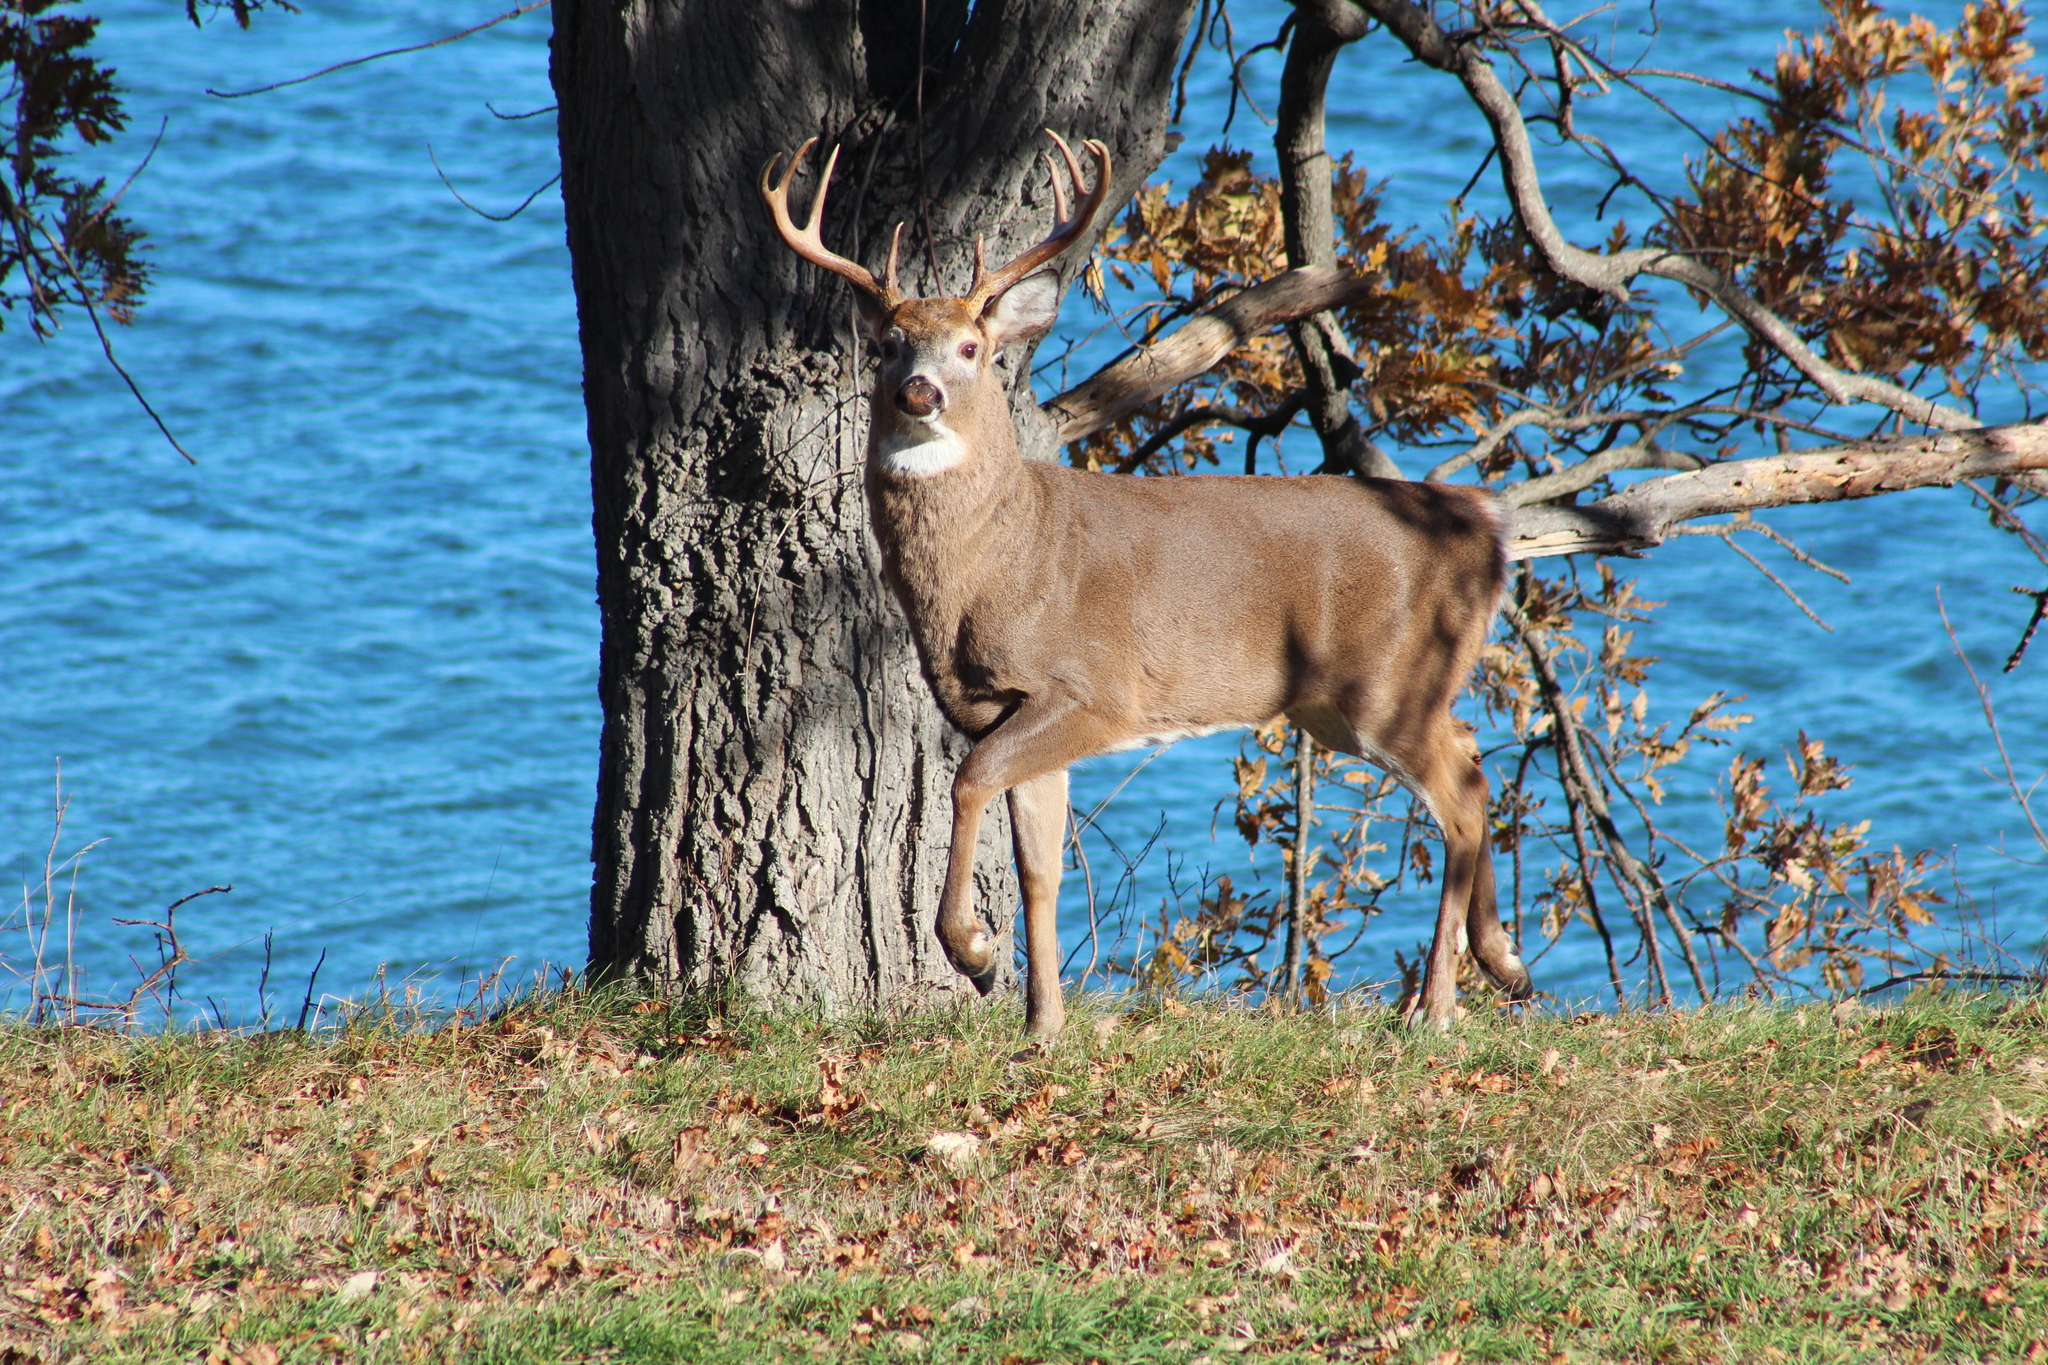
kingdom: Animalia
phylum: Chordata
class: Mammalia
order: Artiodactyla
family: Cervidae
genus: Odocoileus
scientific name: Odocoileus virginianus
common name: White-tailed deer
